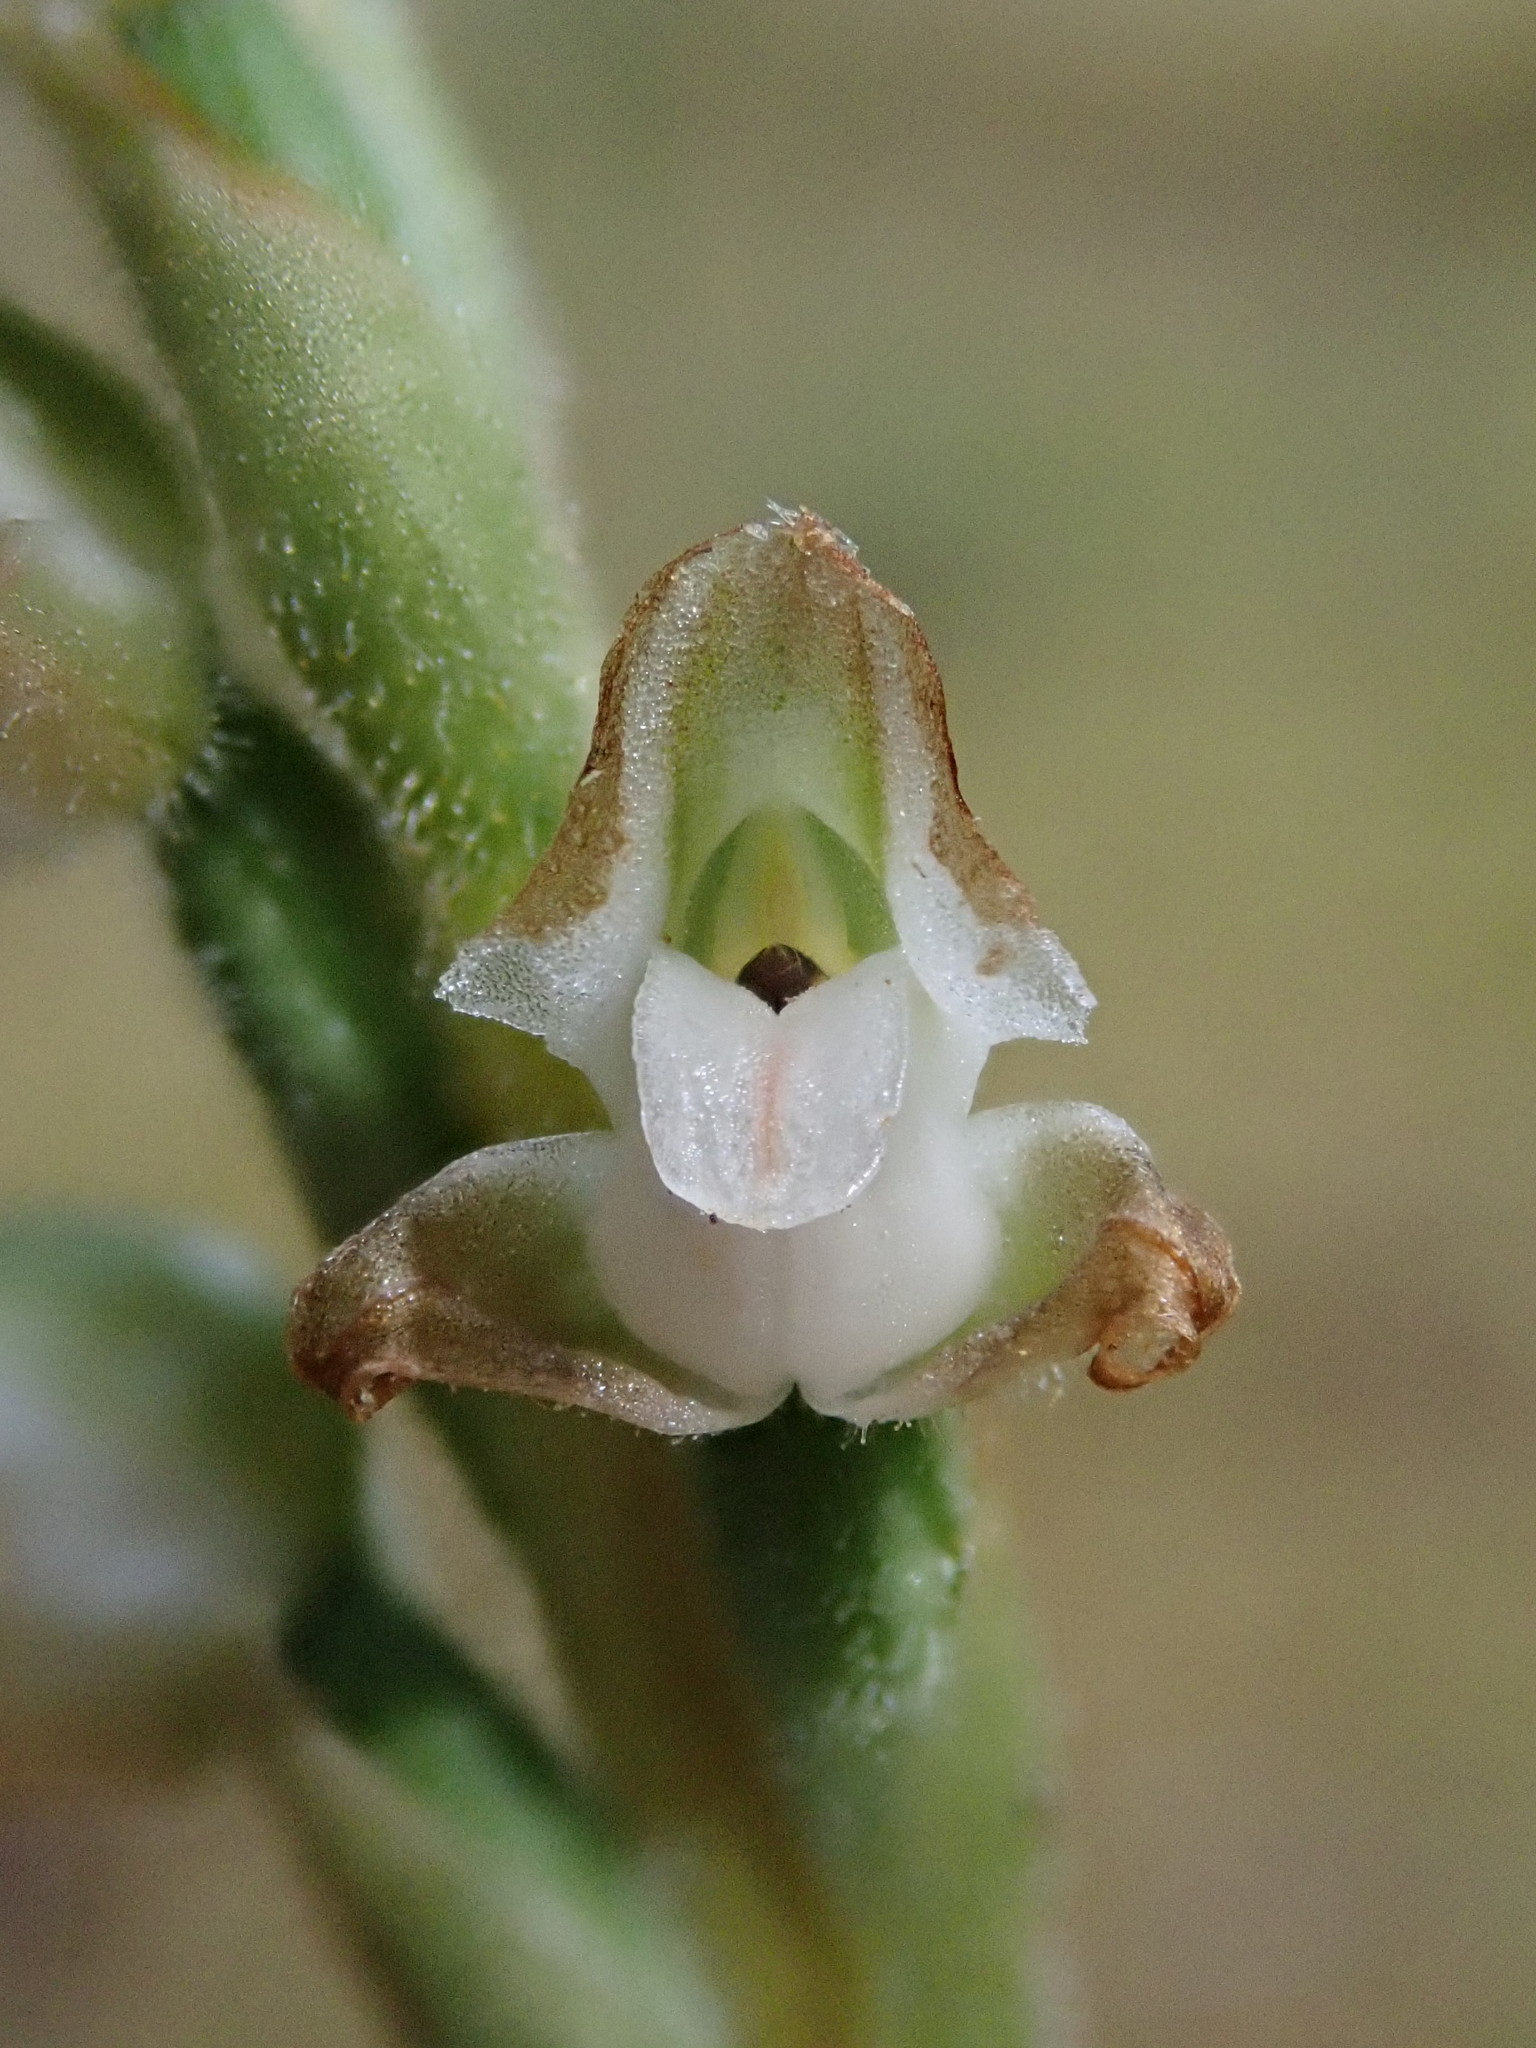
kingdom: Plantae
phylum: Tracheophyta
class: Liliopsida
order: Asparagales
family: Orchidaceae
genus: Goodyera
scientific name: Goodyera oblongifolia
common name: Giant rattlesnake-plantain
